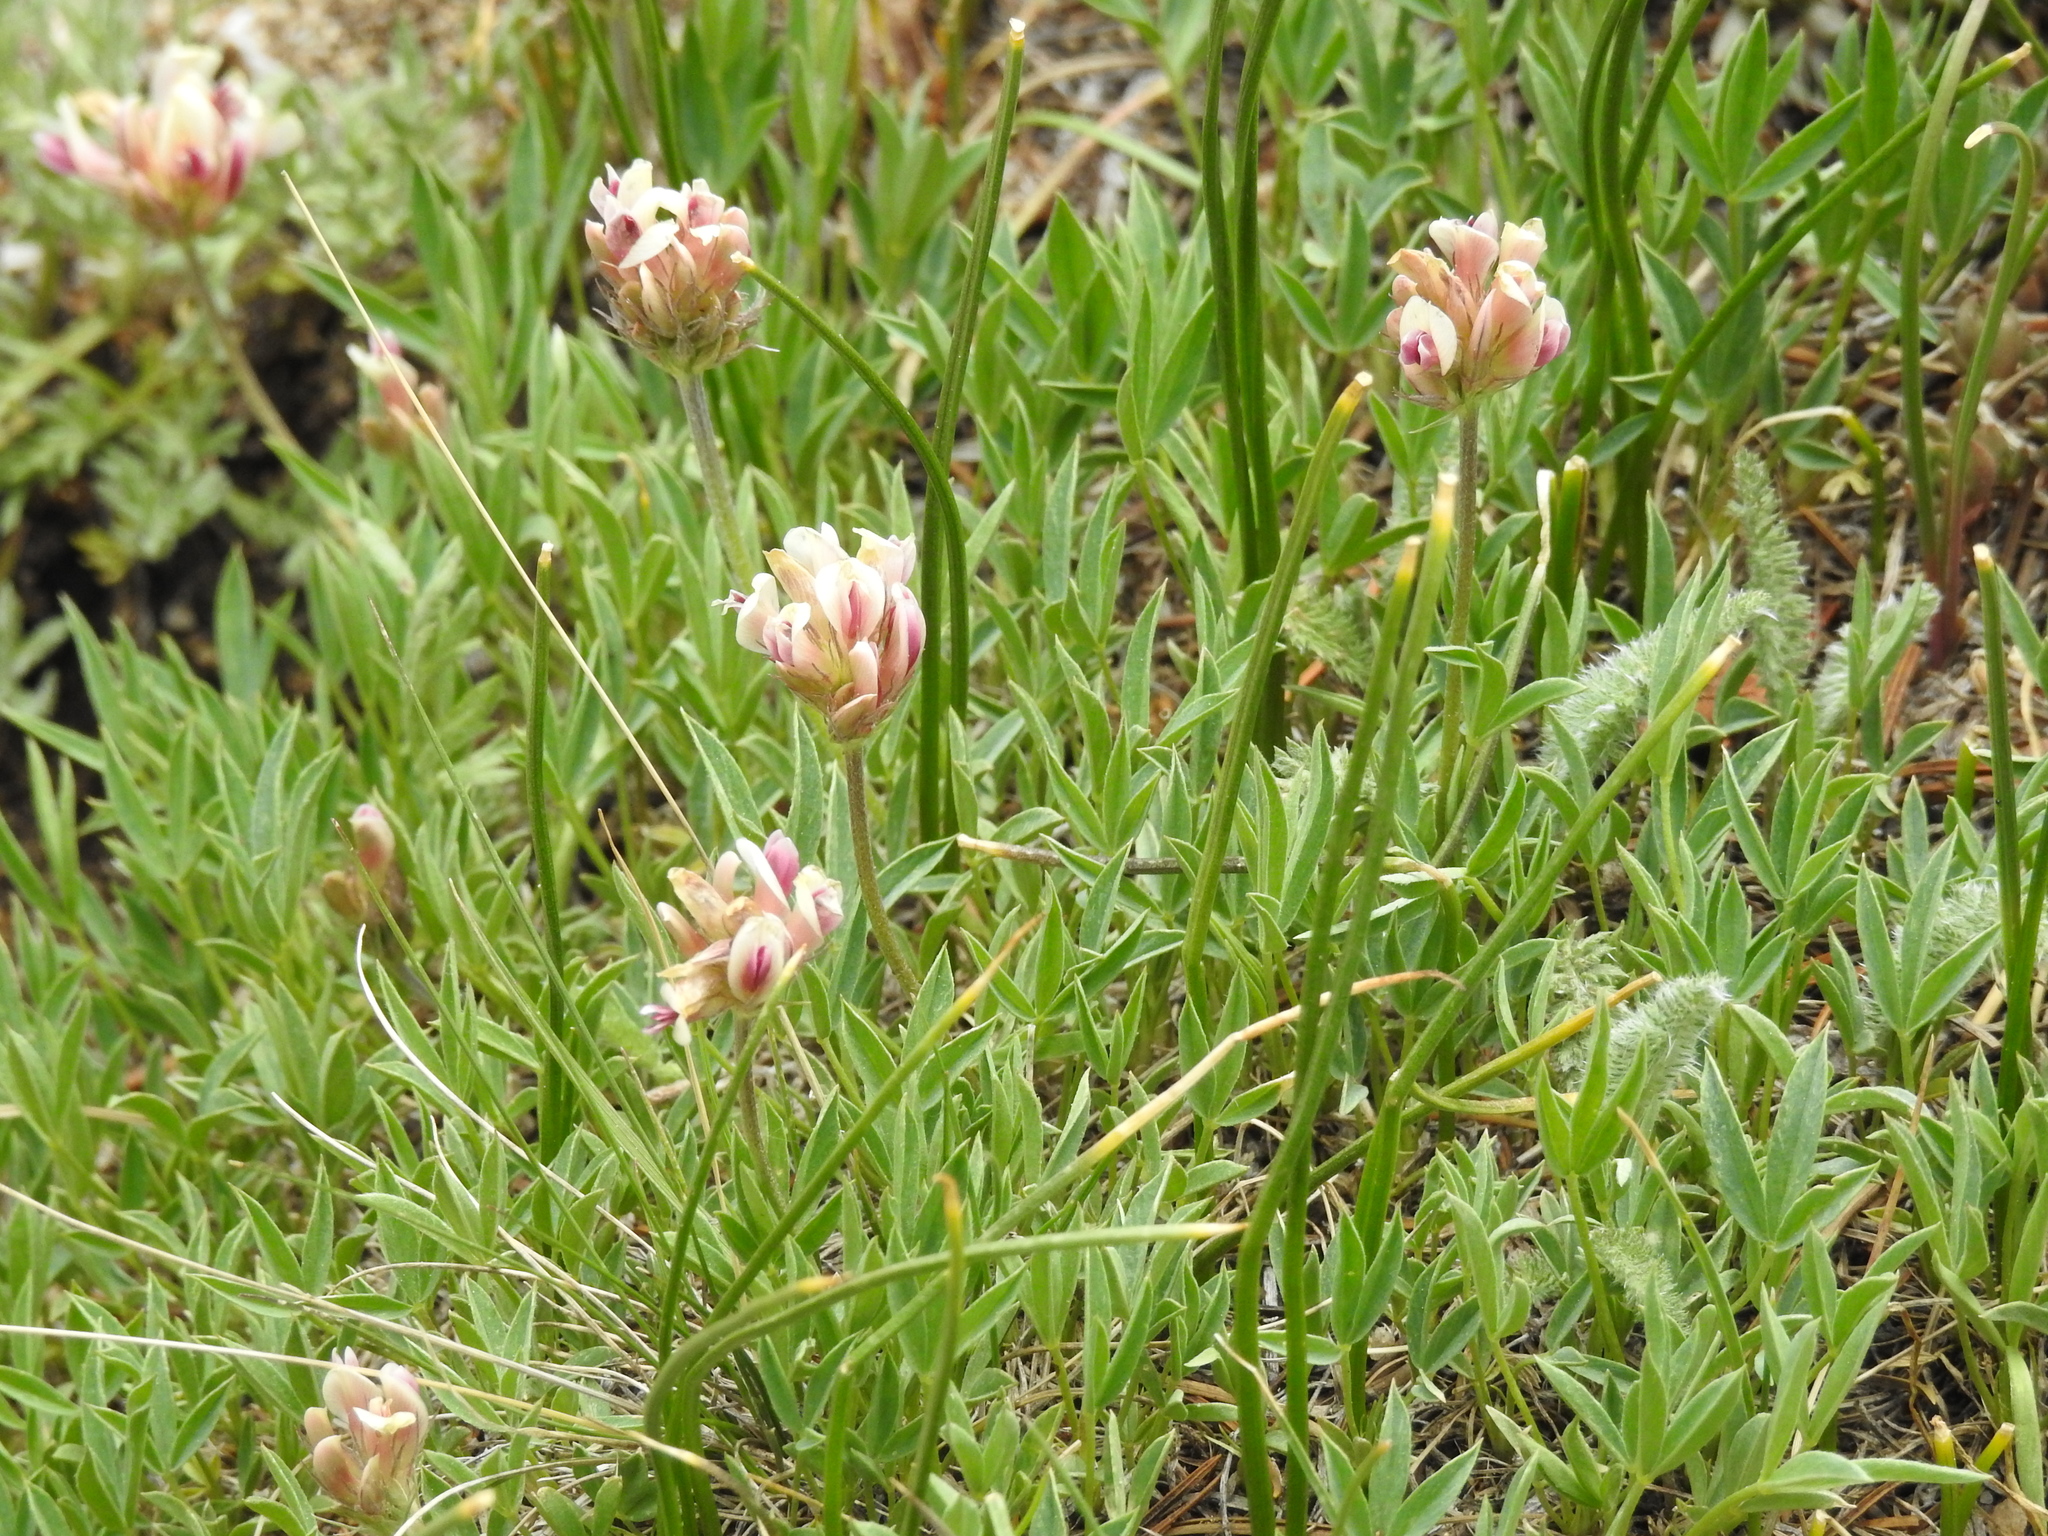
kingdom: Plantae
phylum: Tracheophyta
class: Magnoliopsida
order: Fabales
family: Fabaceae
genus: Trifolium
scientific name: Trifolium dasyphyllum
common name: Whip-root clover
